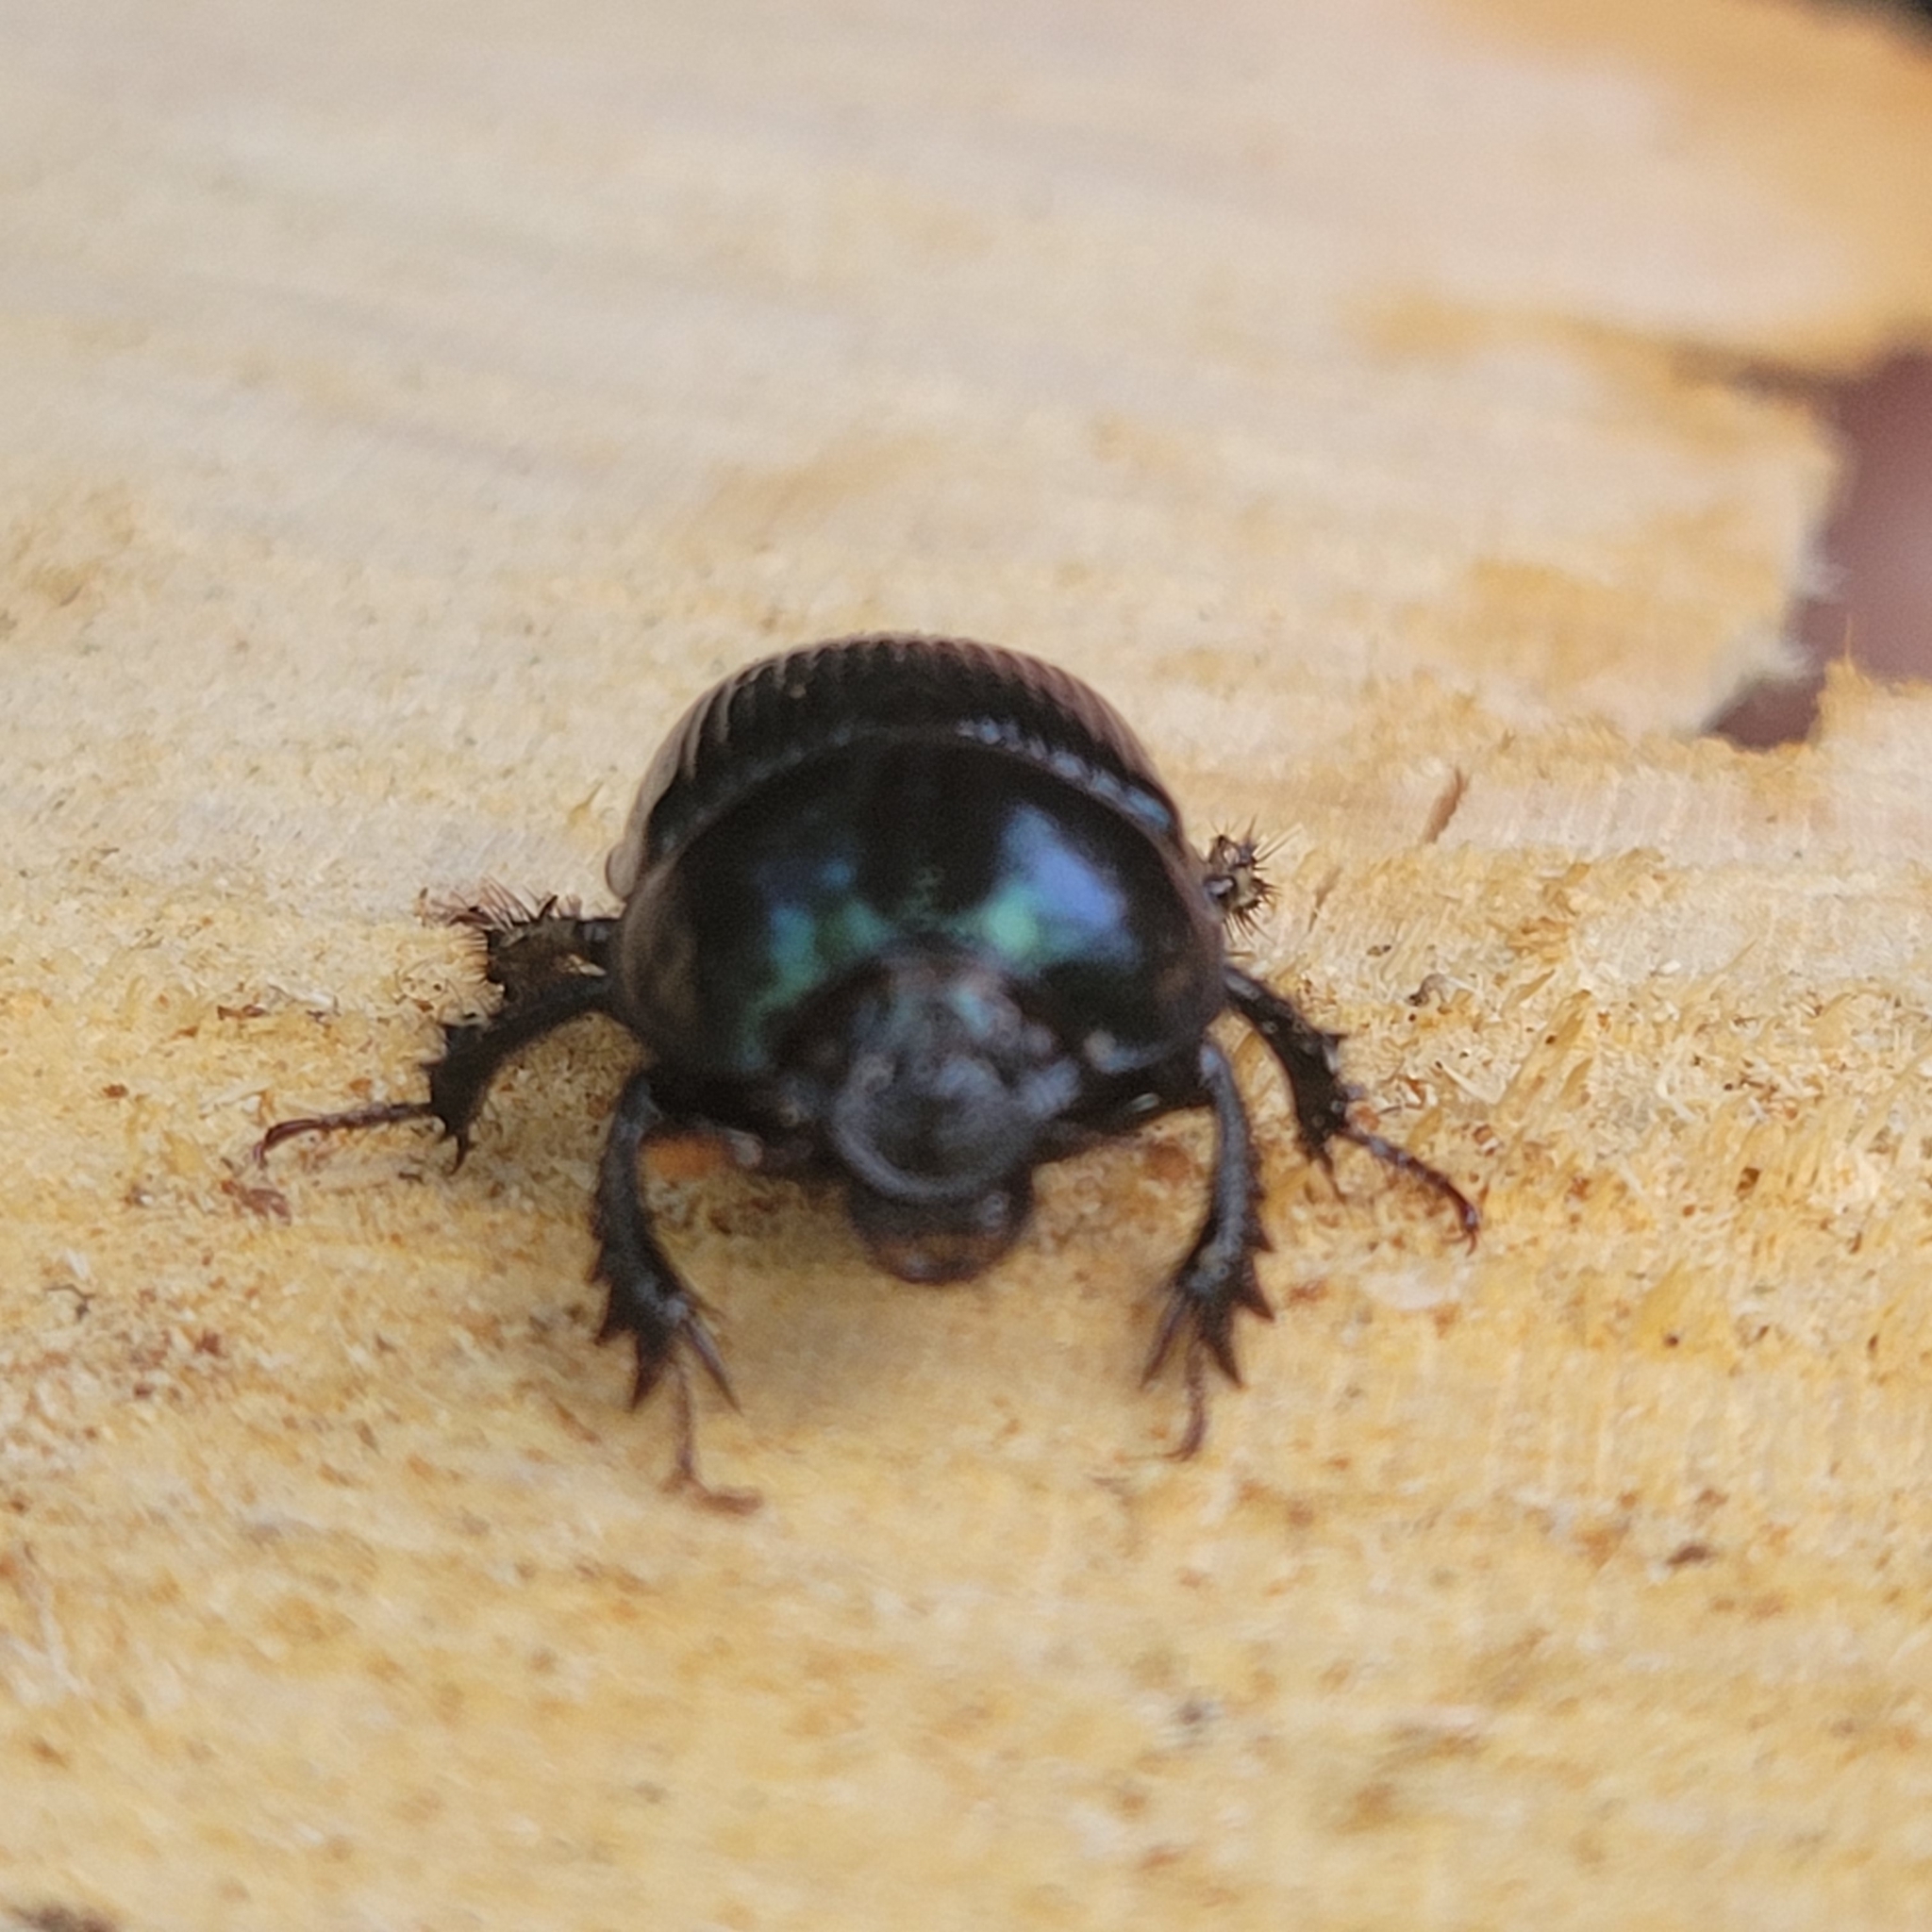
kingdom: Animalia
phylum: Arthropoda
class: Insecta
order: Coleoptera
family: Geotrupidae
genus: Anoplotrupes
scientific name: Anoplotrupes balyi
